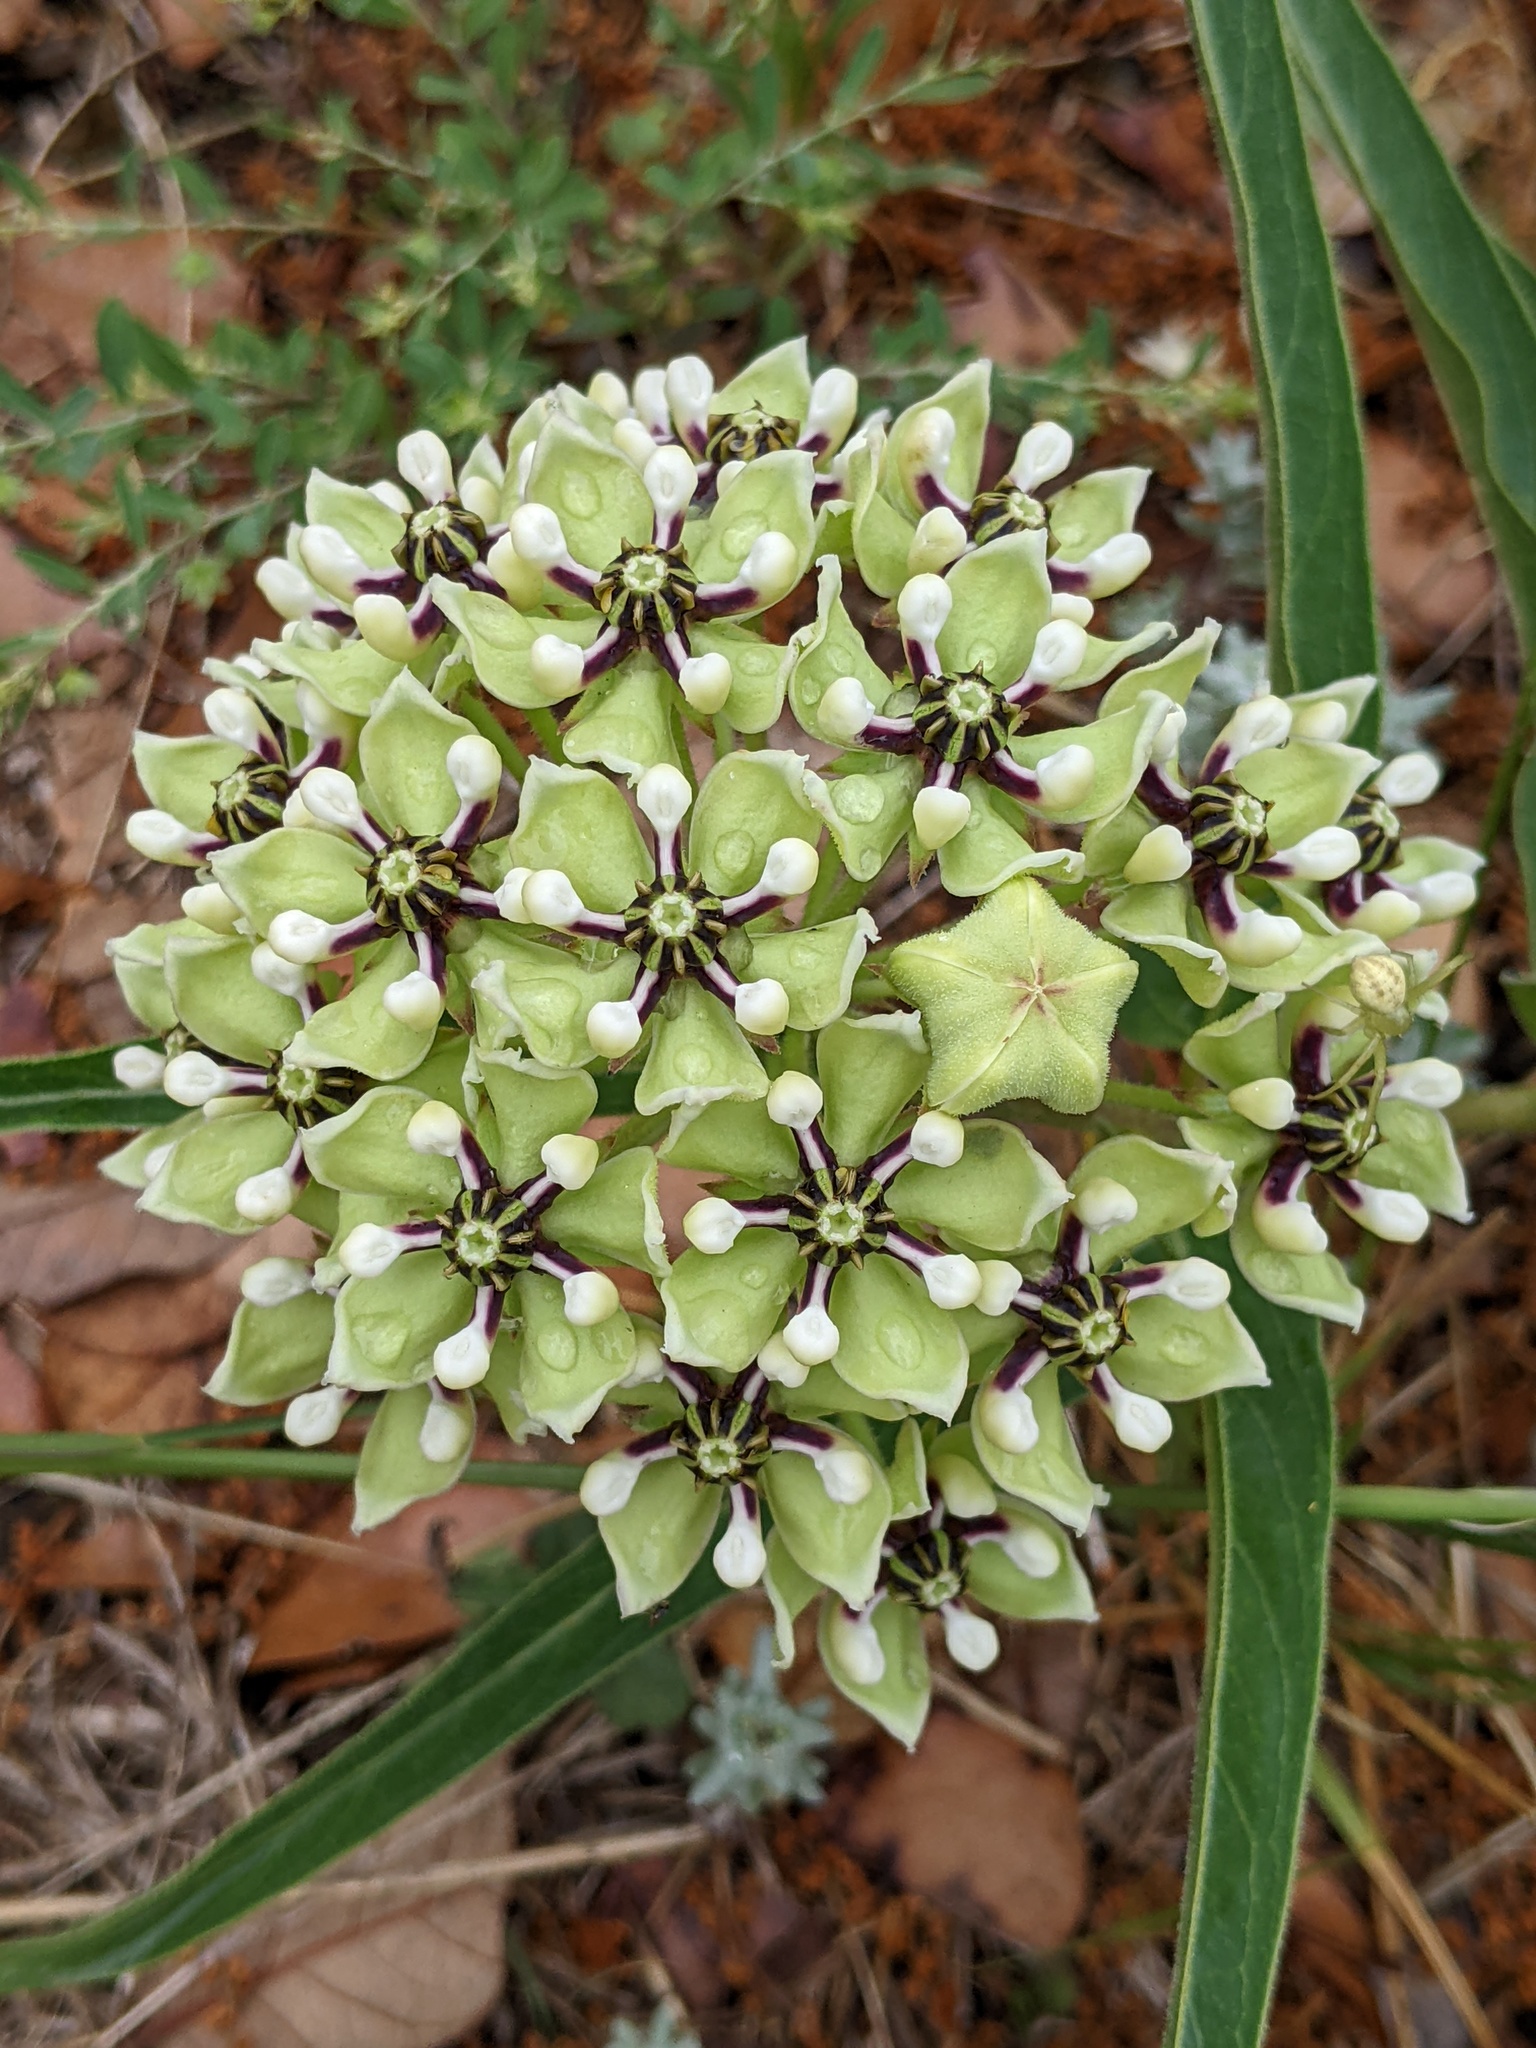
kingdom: Plantae
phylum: Tracheophyta
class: Magnoliopsida
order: Gentianales
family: Apocynaceae
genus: Asclepias
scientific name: Asclepias asperula
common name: Antelope horns
